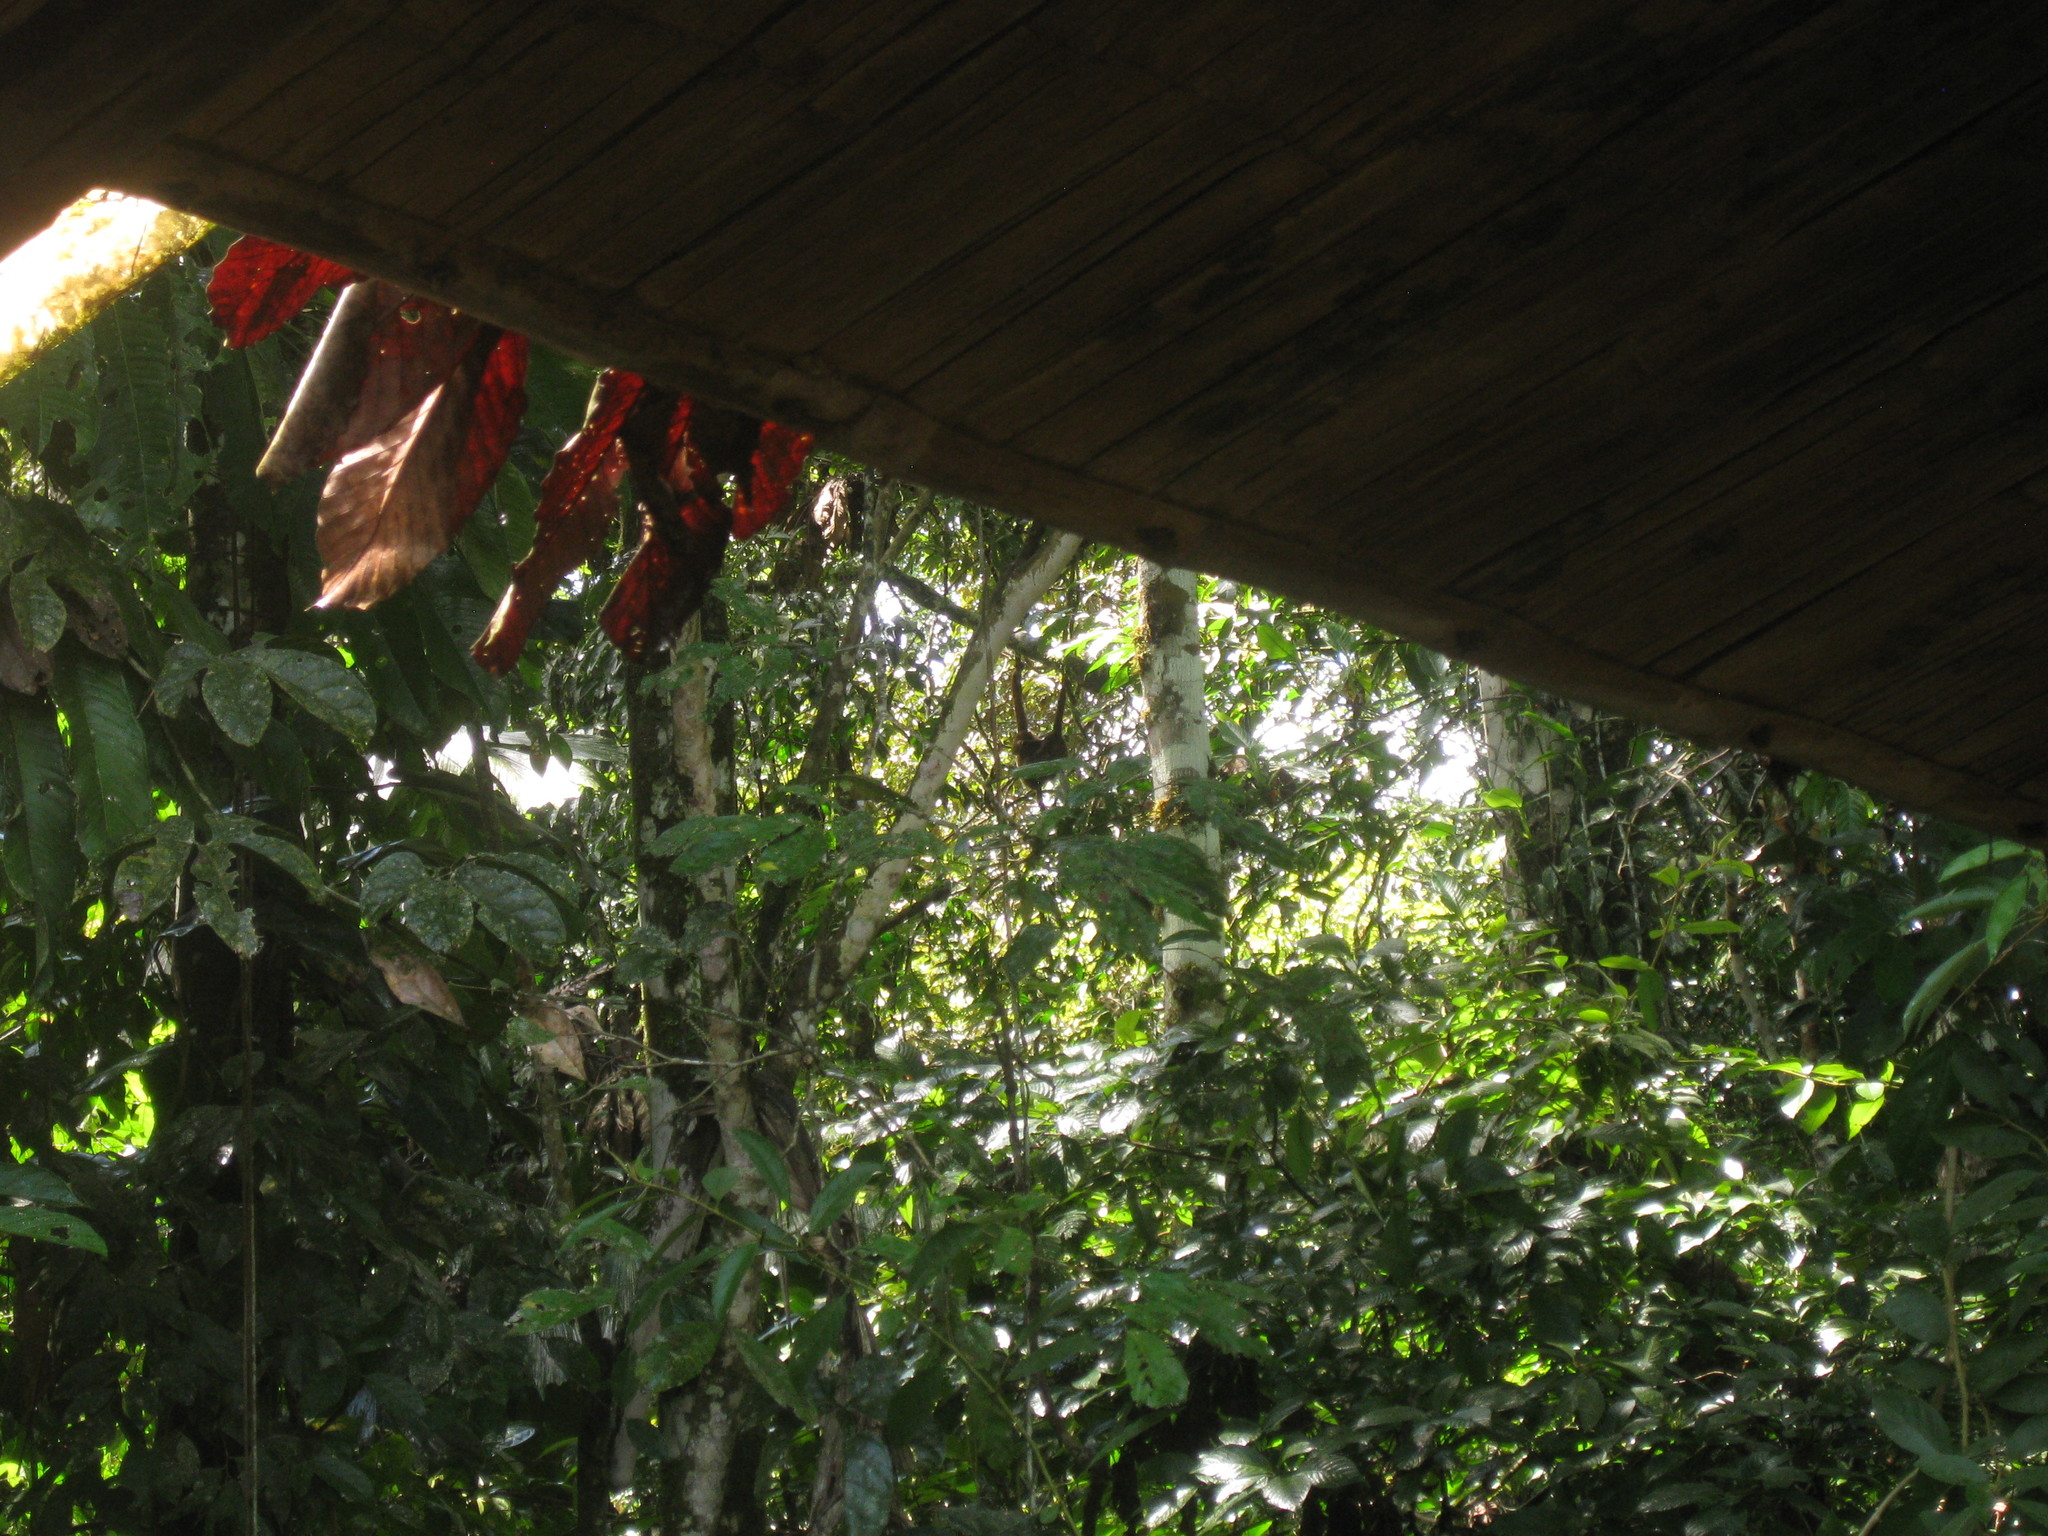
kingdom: Animalia
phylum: Chordata
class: Mammalia
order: Primates
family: Atelidae
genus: Lagothrix
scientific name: Lagothrix lagothricha
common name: Brown woolly monkey
